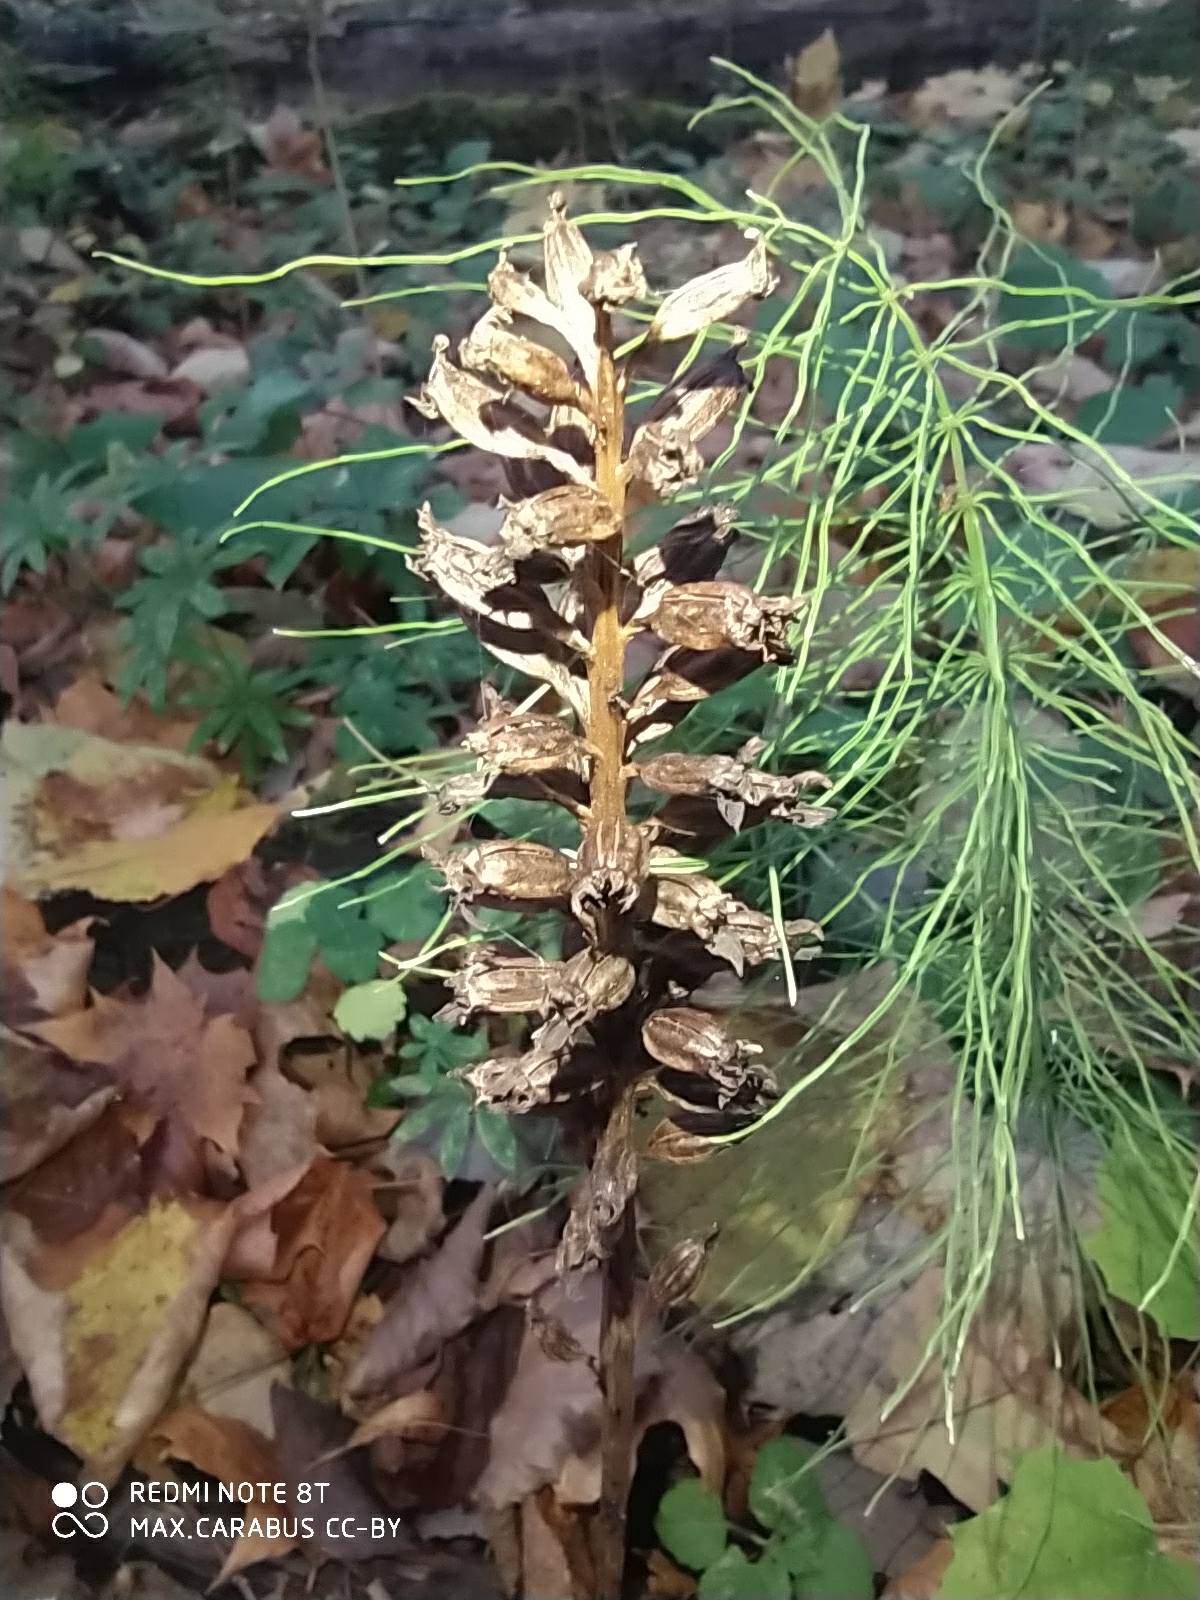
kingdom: Plantae
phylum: Tracheophyta
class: Liliopsida
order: Asparagales
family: Orchidaceae
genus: Neottia
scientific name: Neottia nidus-avis
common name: Bird's-nest orchid
